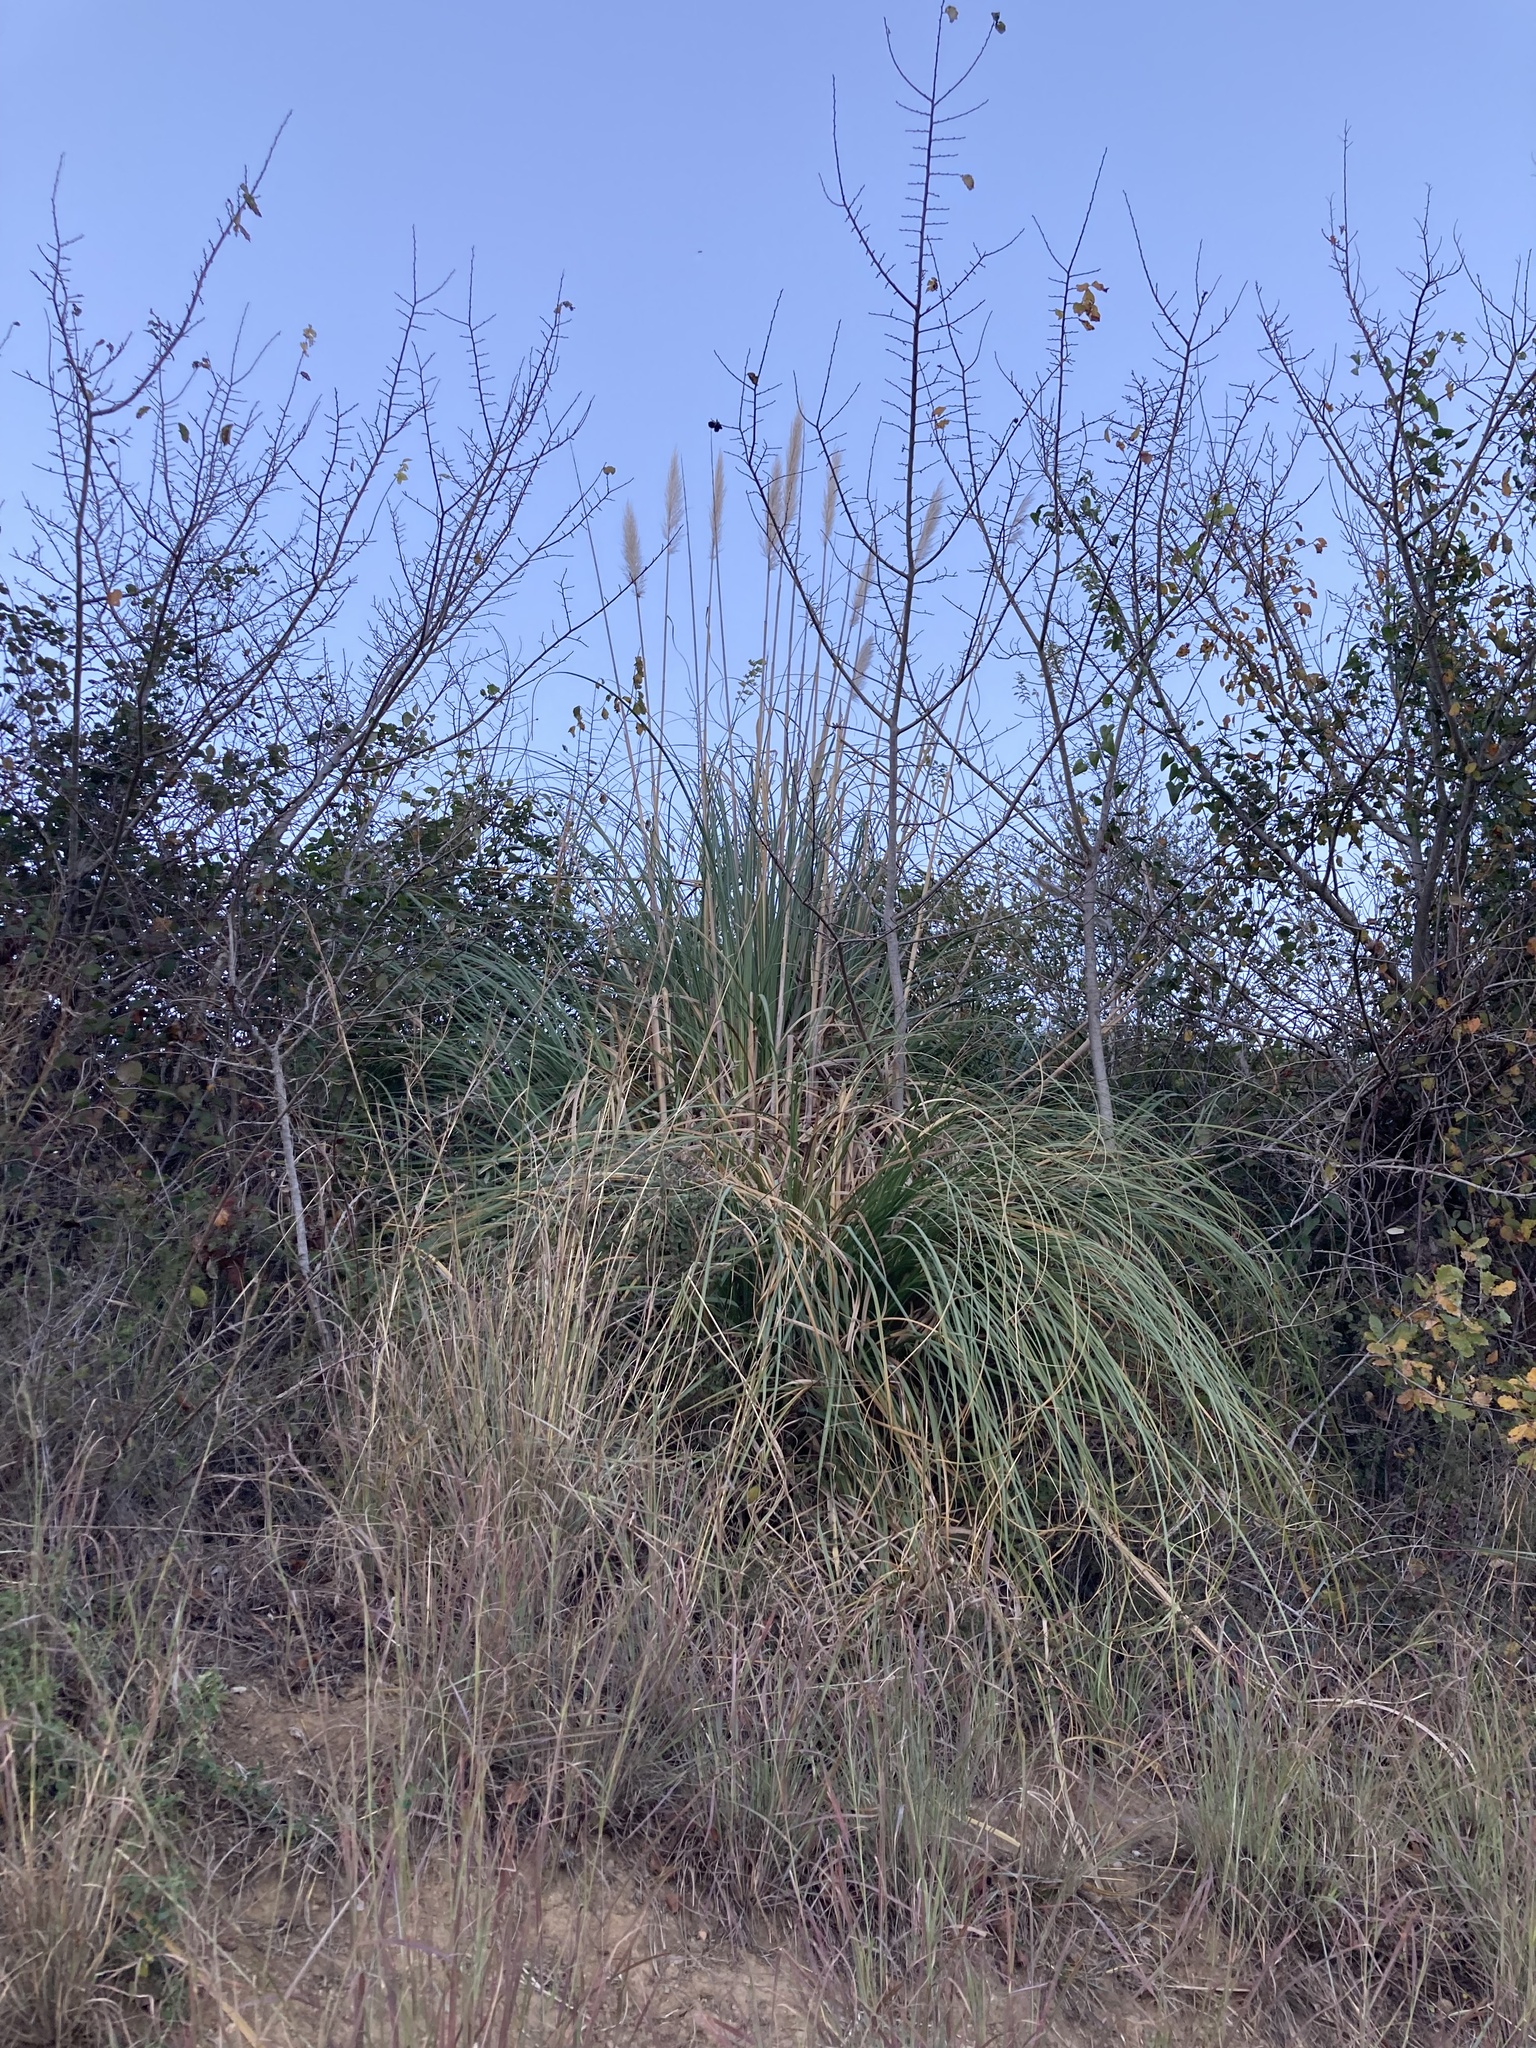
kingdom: Plantae
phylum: Tracheophyta
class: Liliopsida
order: Poales
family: Poaceae
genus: Cortaderia
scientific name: Cortaderia selloana
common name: Uruguayan pampas grass
